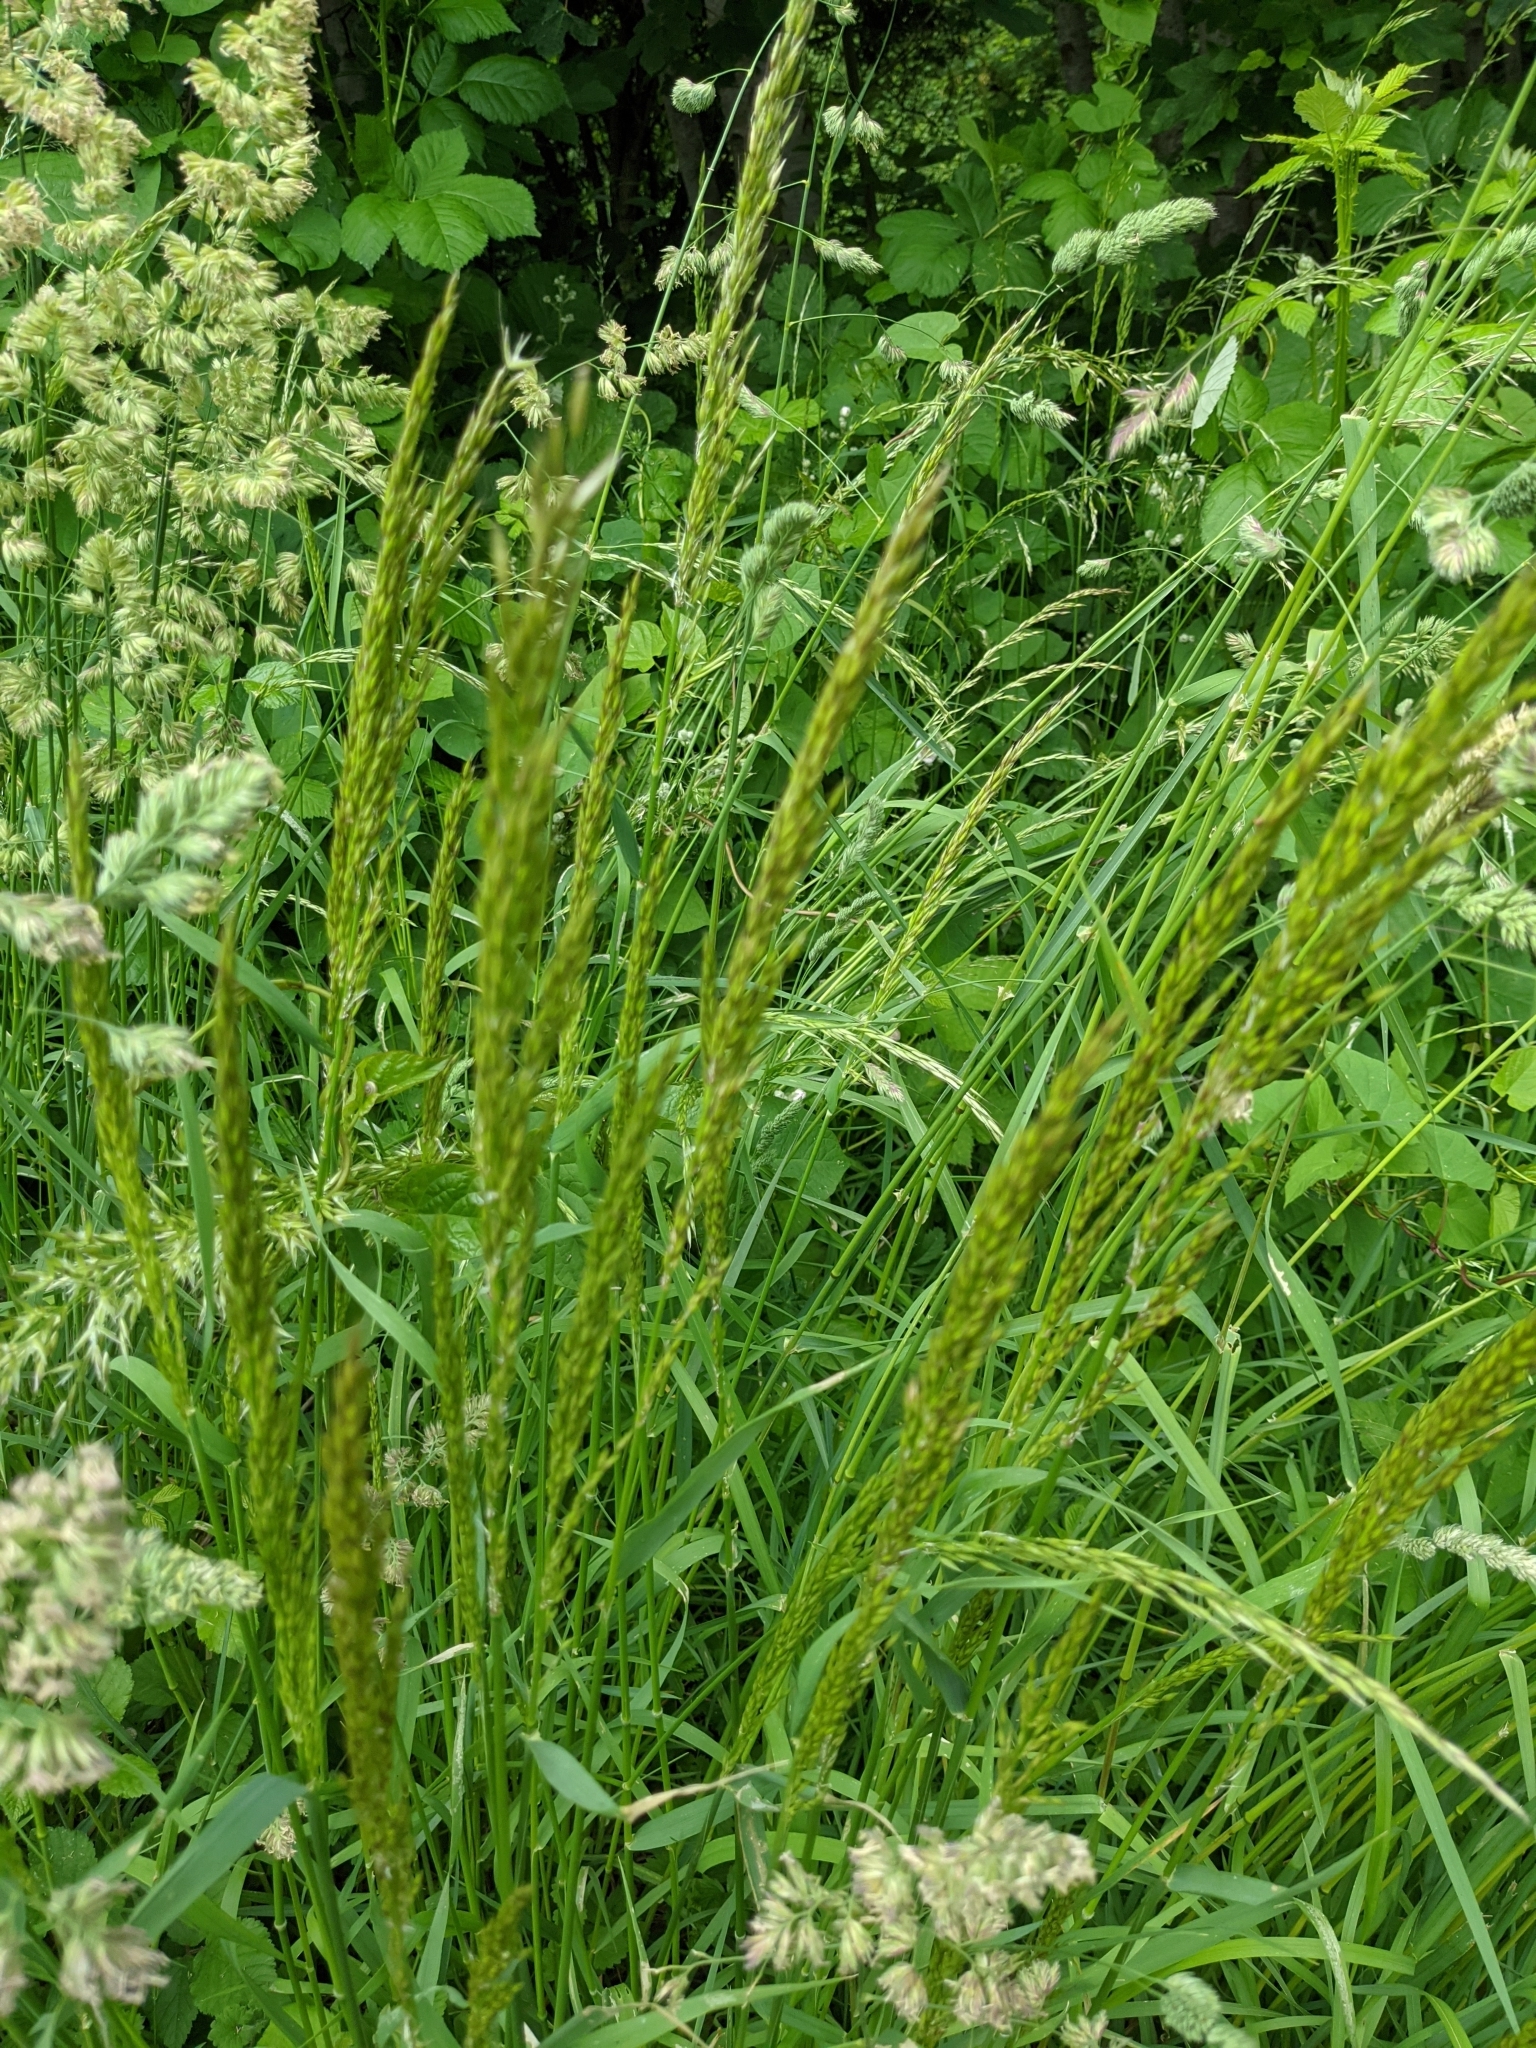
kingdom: Plantae
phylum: Tracheophyta
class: Liliopsida
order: Poales
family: Poaceae
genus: Arrhenatherum
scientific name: Arrhenatherum elatius
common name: Tall oatgrass
